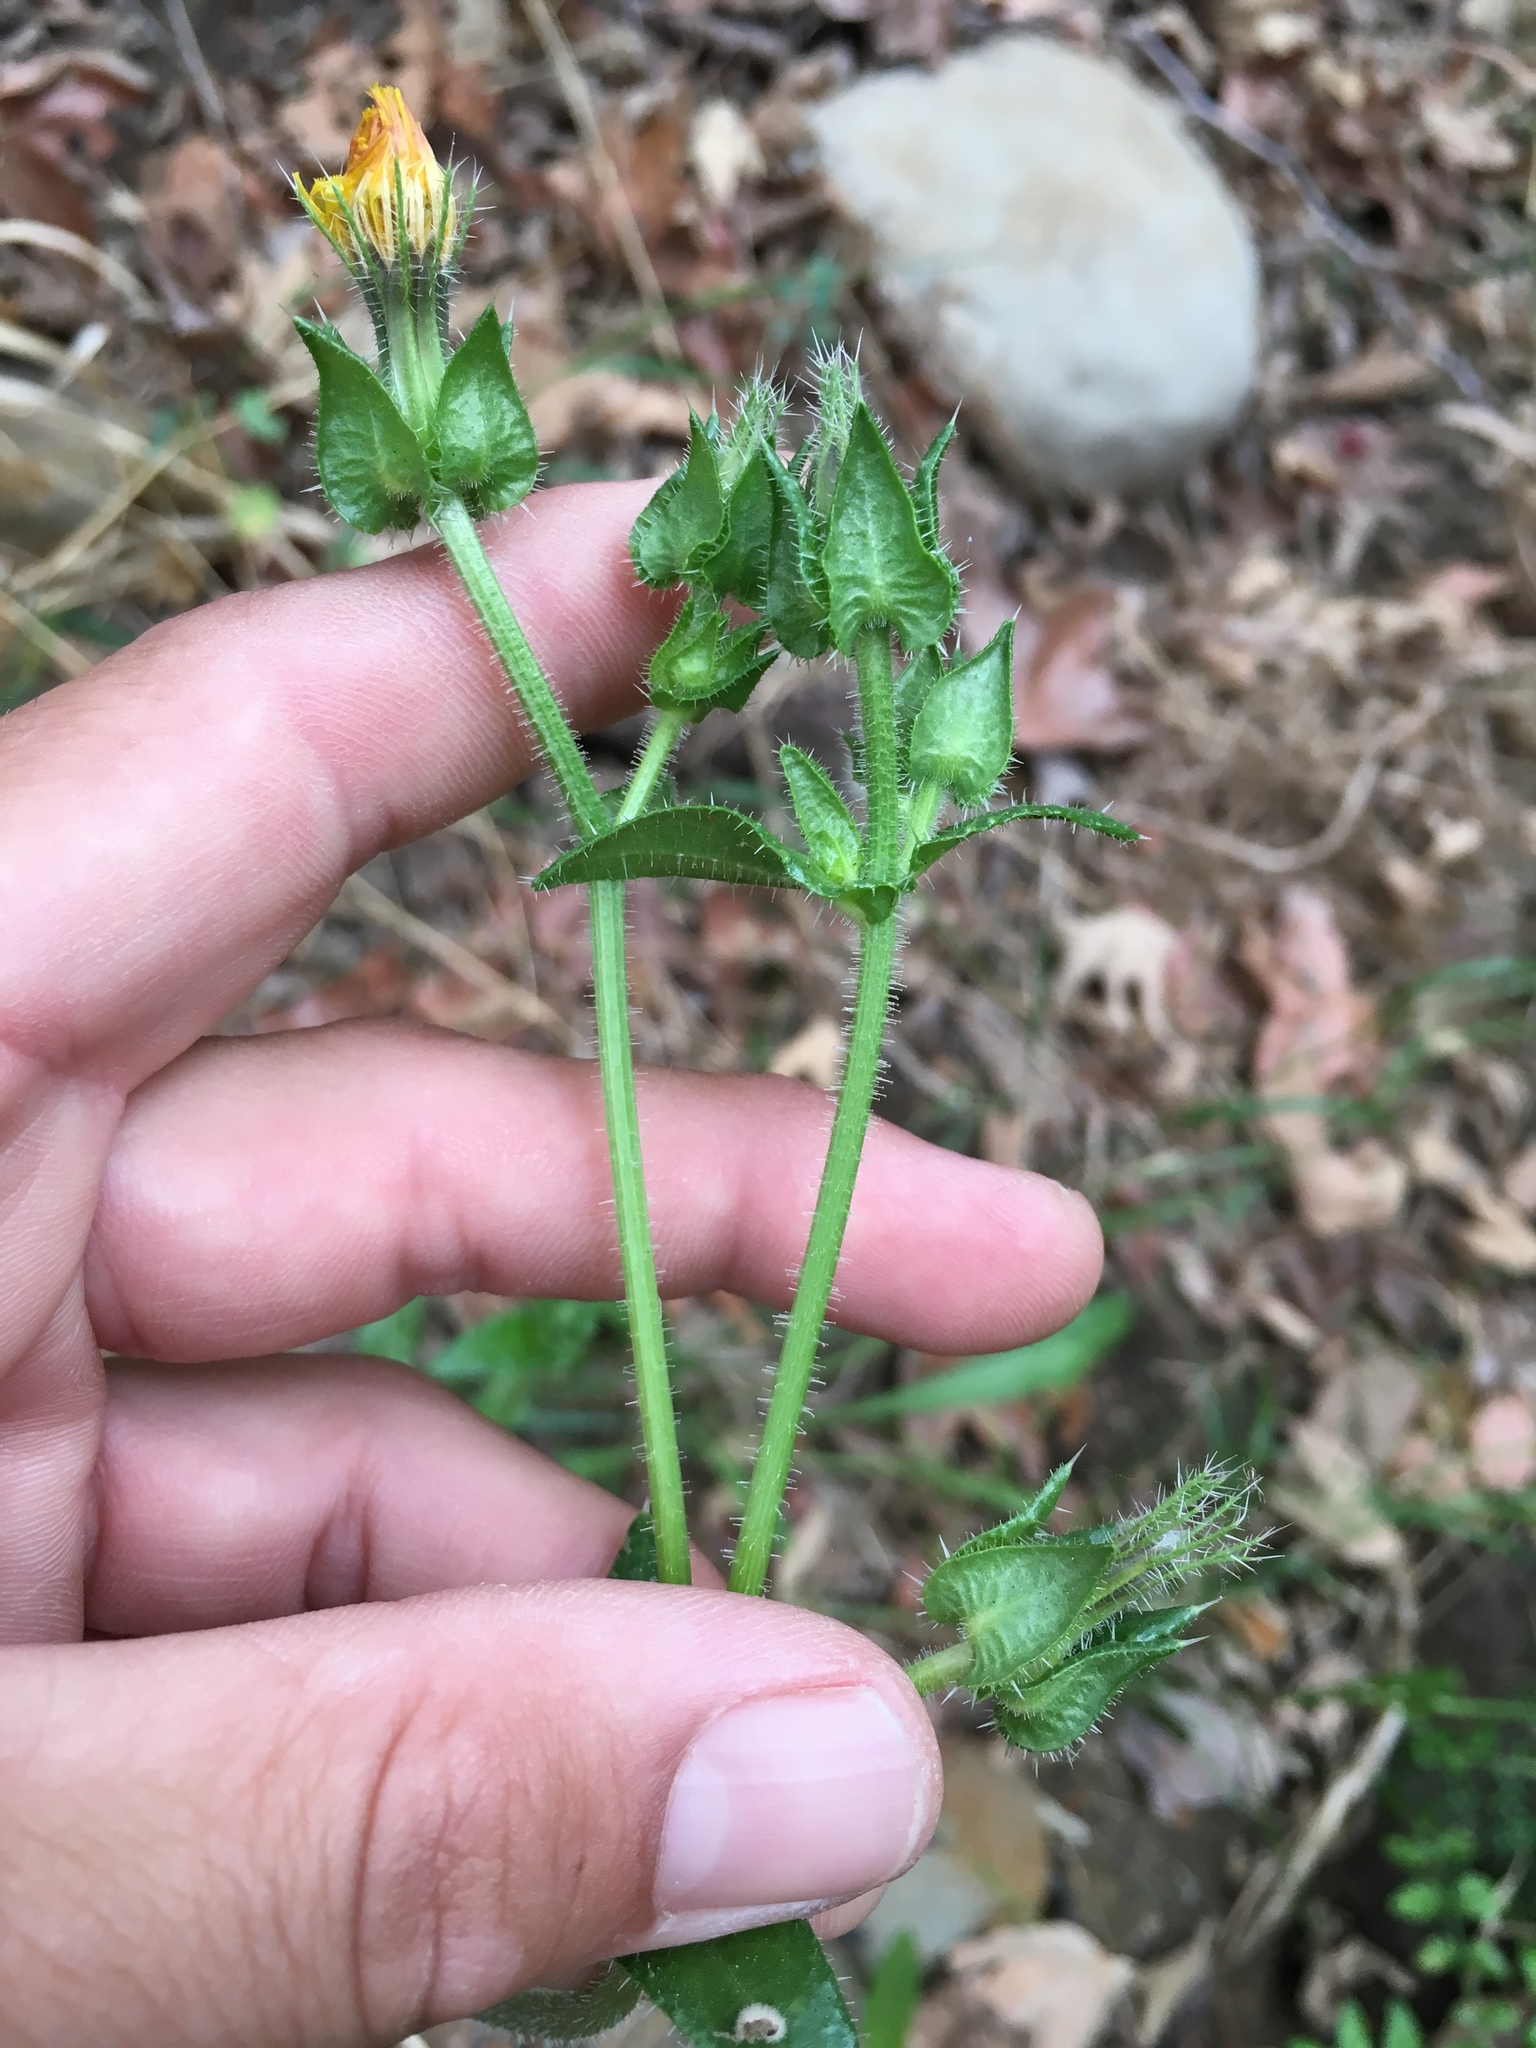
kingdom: Plantae
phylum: Tracheophyta
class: Magnoliopsida
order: Asterales
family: Asteraceae
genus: Helminthotheca
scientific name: Helminthotheca echioides
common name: Ox-tongue
